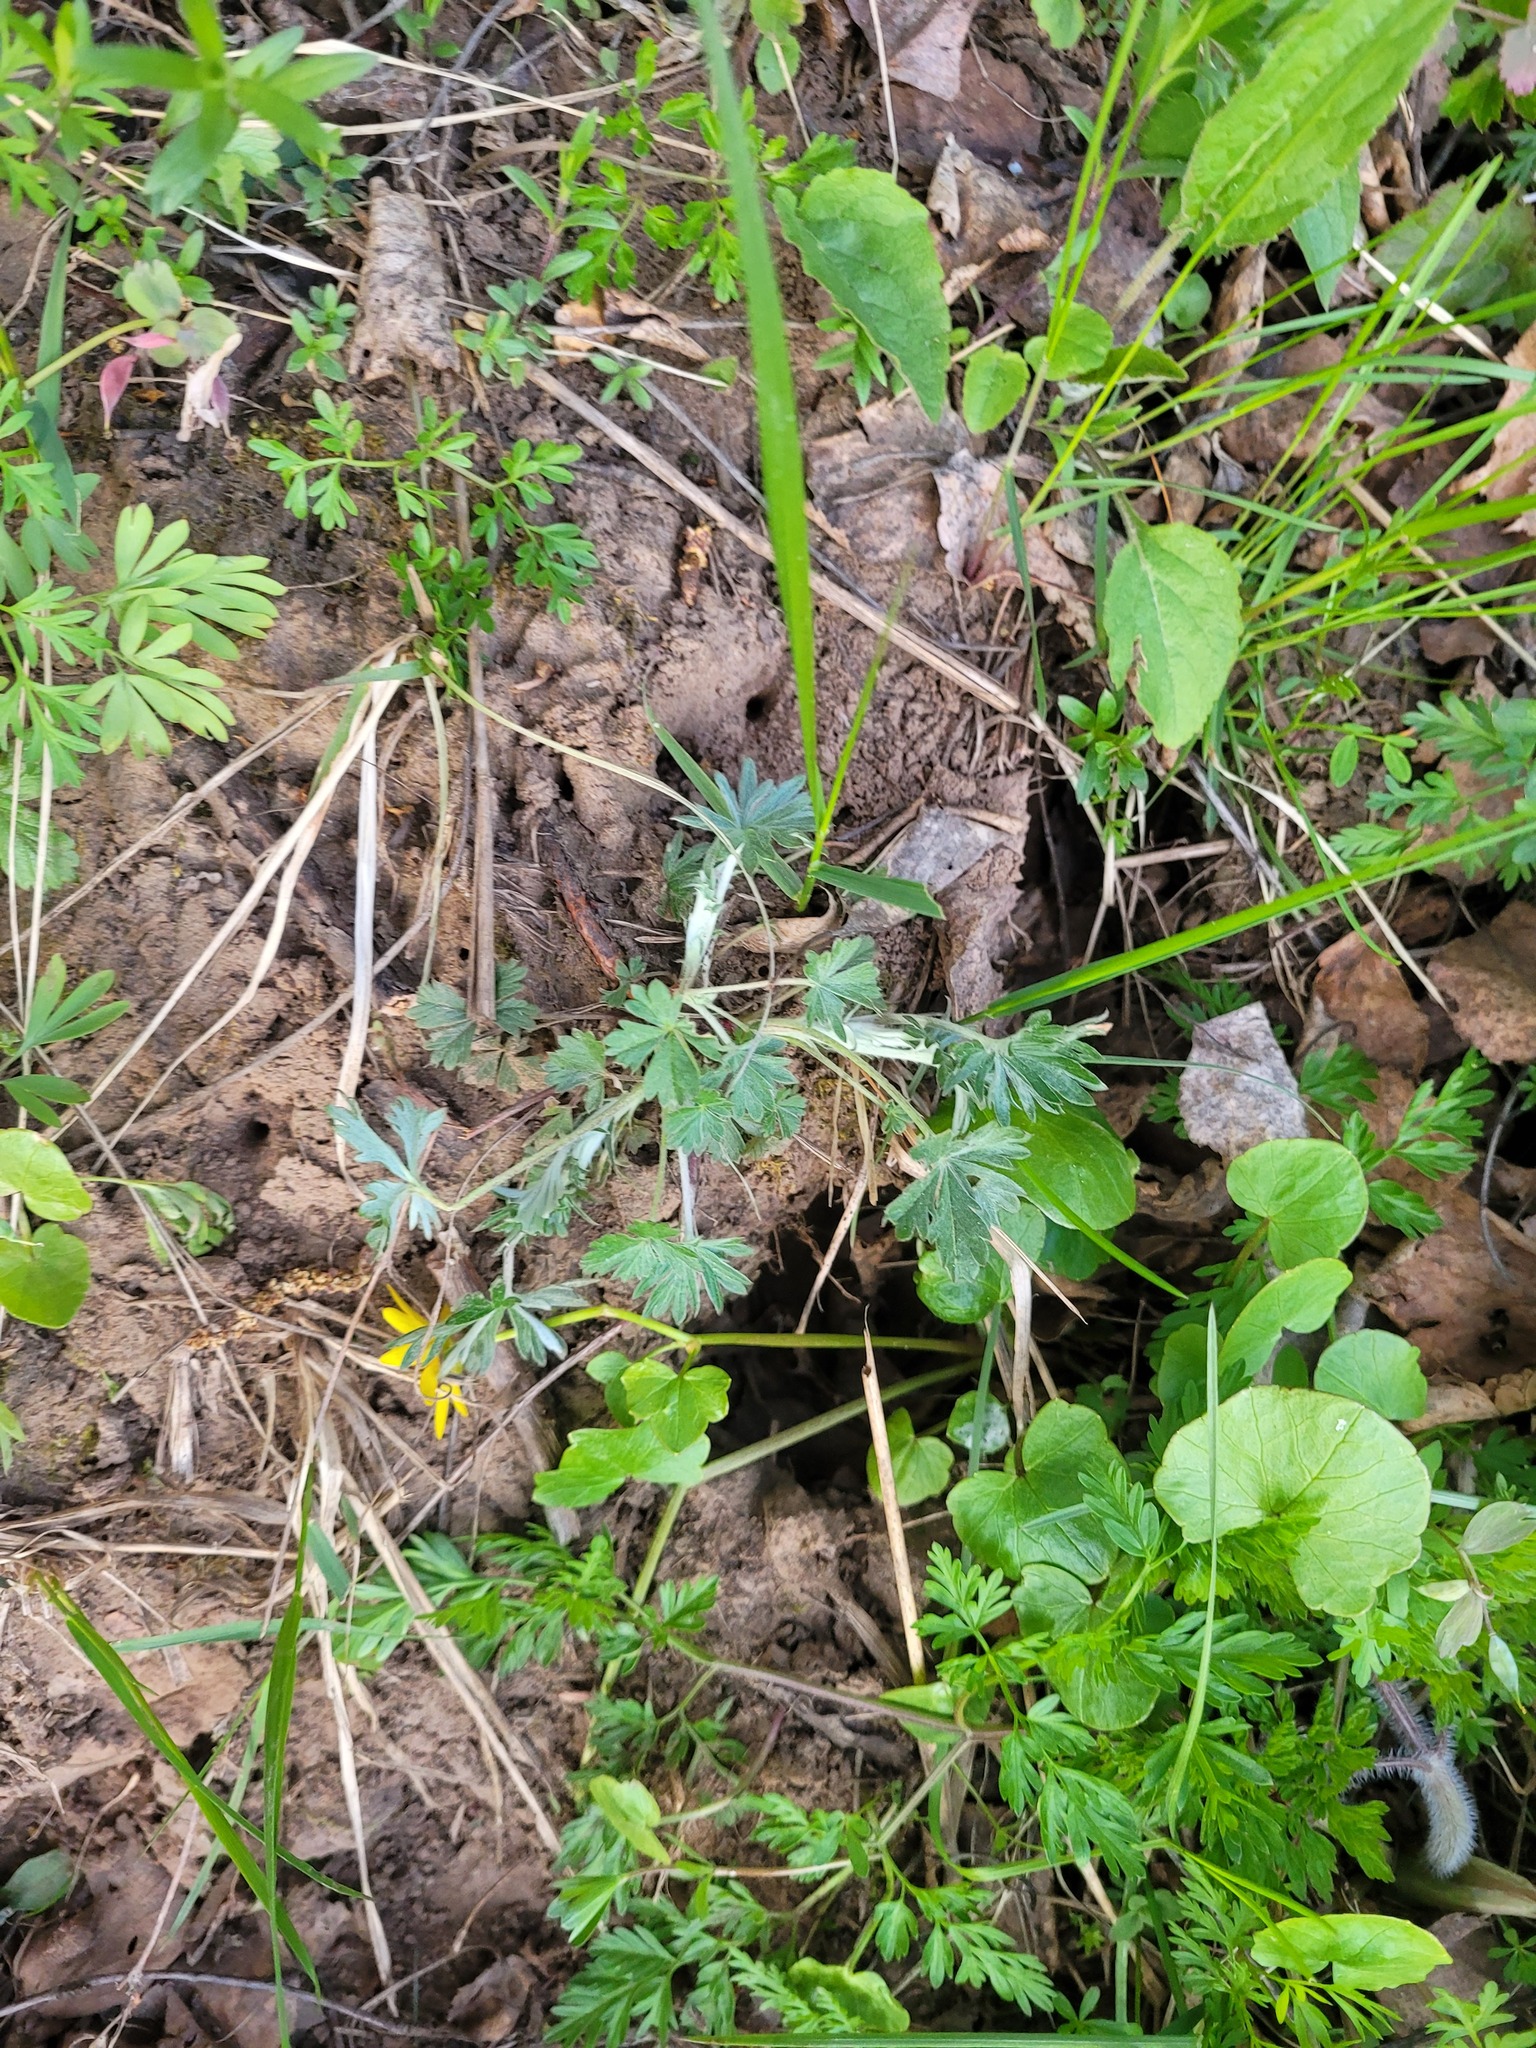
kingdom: Plantae
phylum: Tracheophyta
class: Magnoliopsida
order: Rosales
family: Rosaceae
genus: Potentilla
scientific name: Potentilla argentea
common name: Hoary cinquefoil
